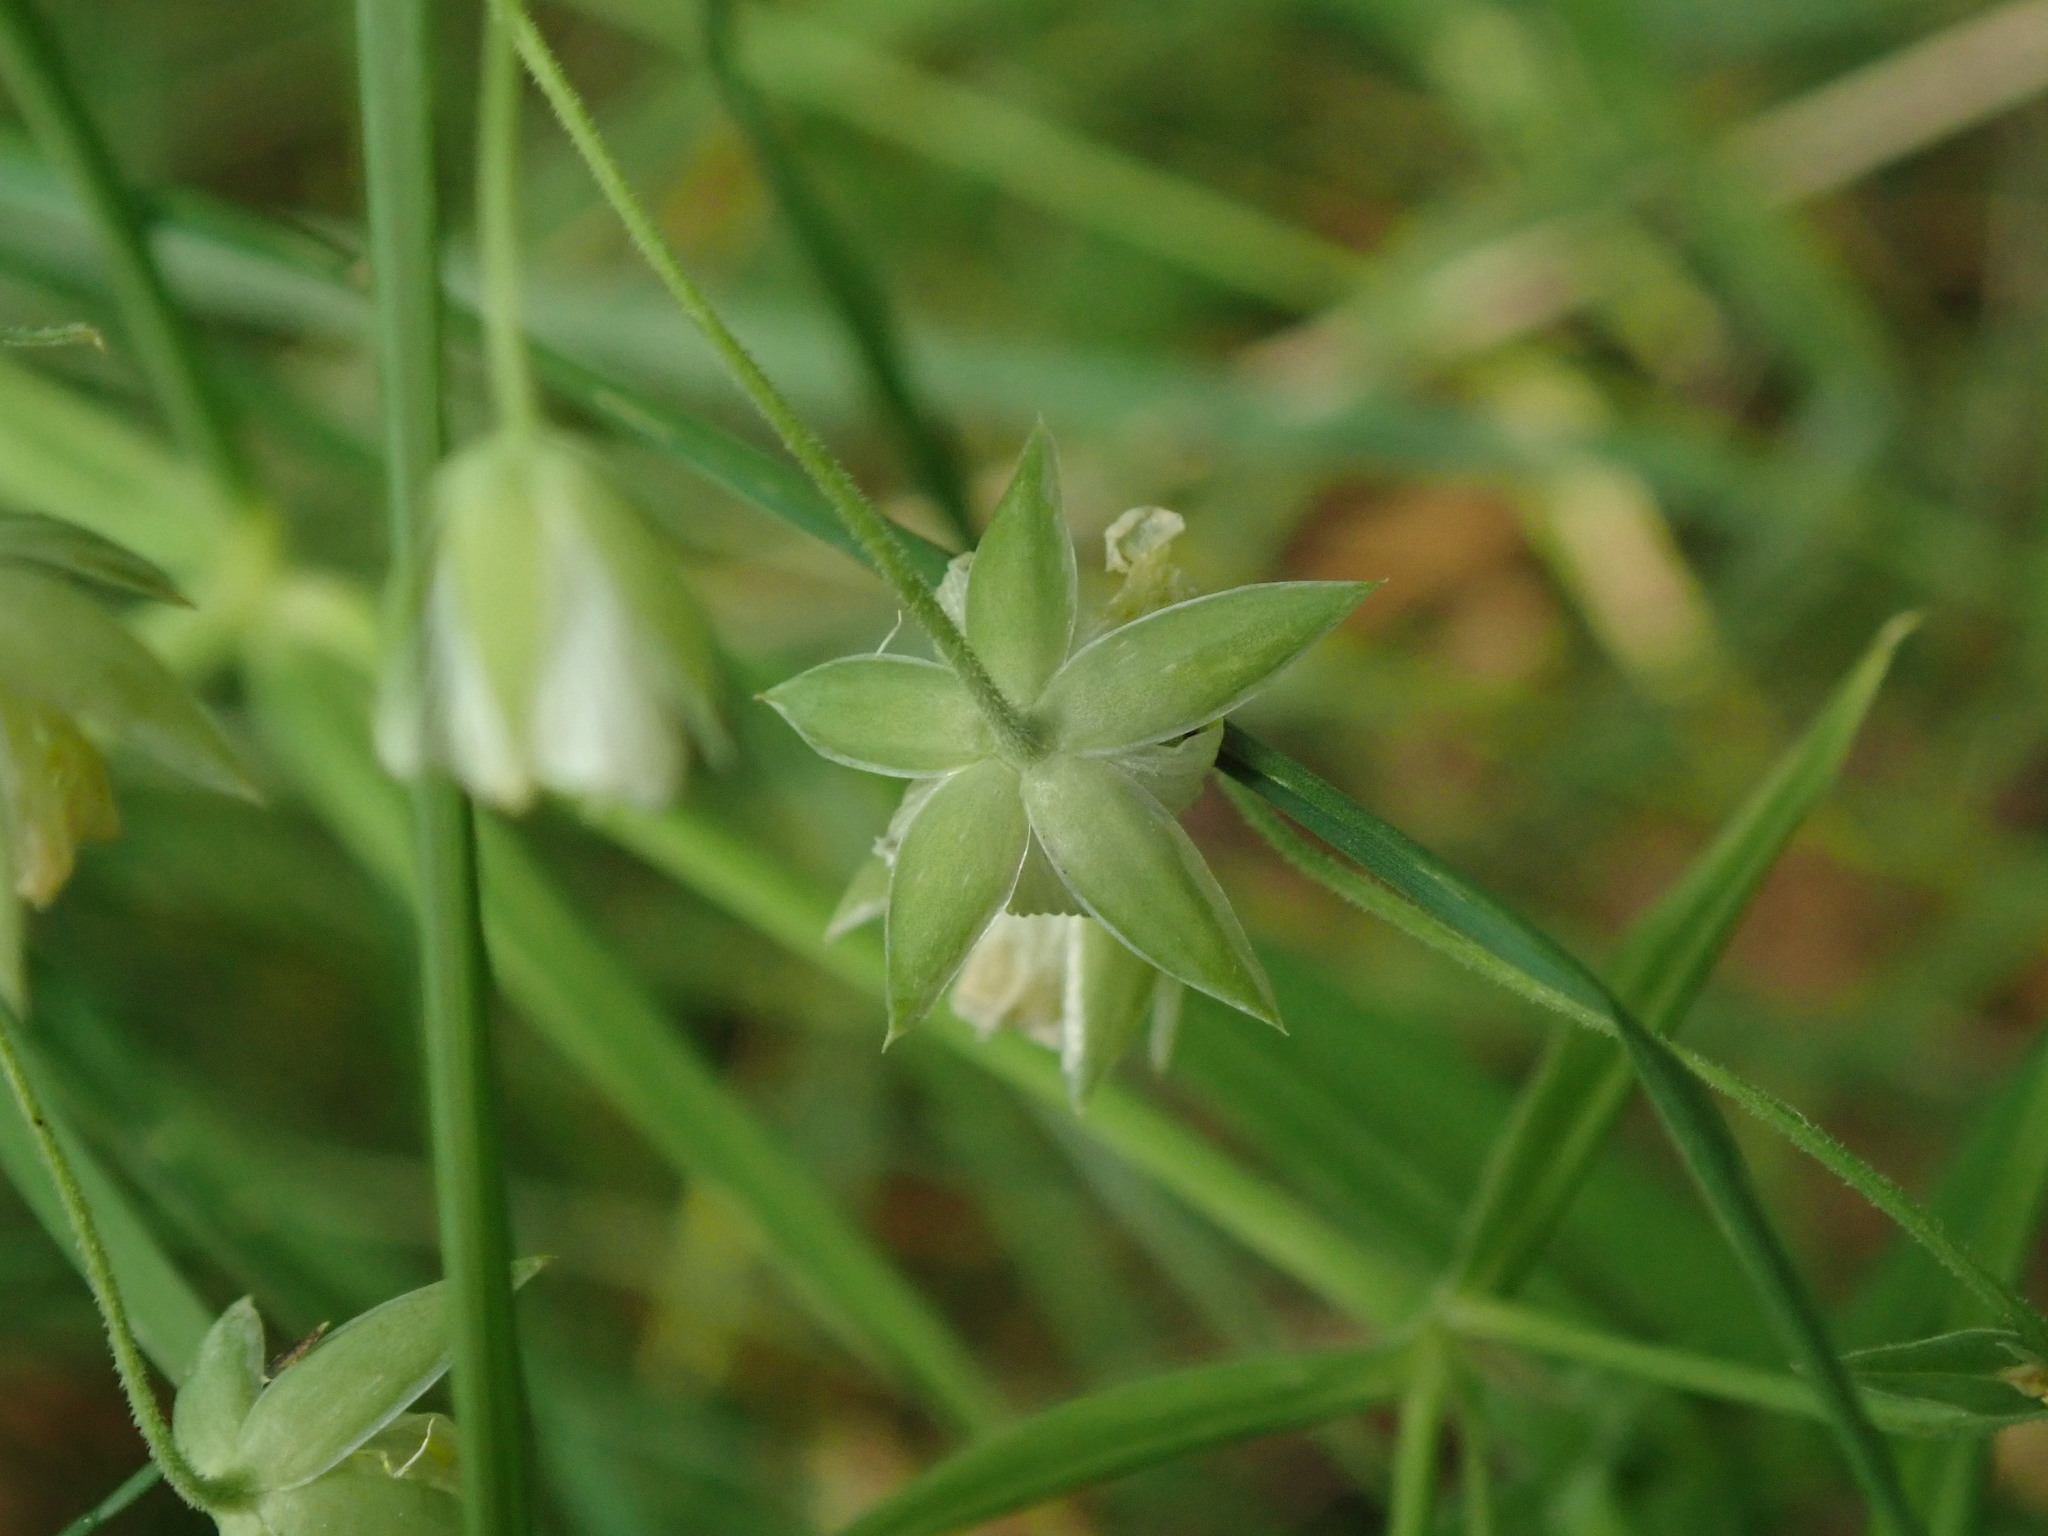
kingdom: Plantae
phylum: Tracheophyta
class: Magnoliopsida
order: Caryophyllales
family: Caryophyllaceae
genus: Rabelera
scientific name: Rabelera holostea
